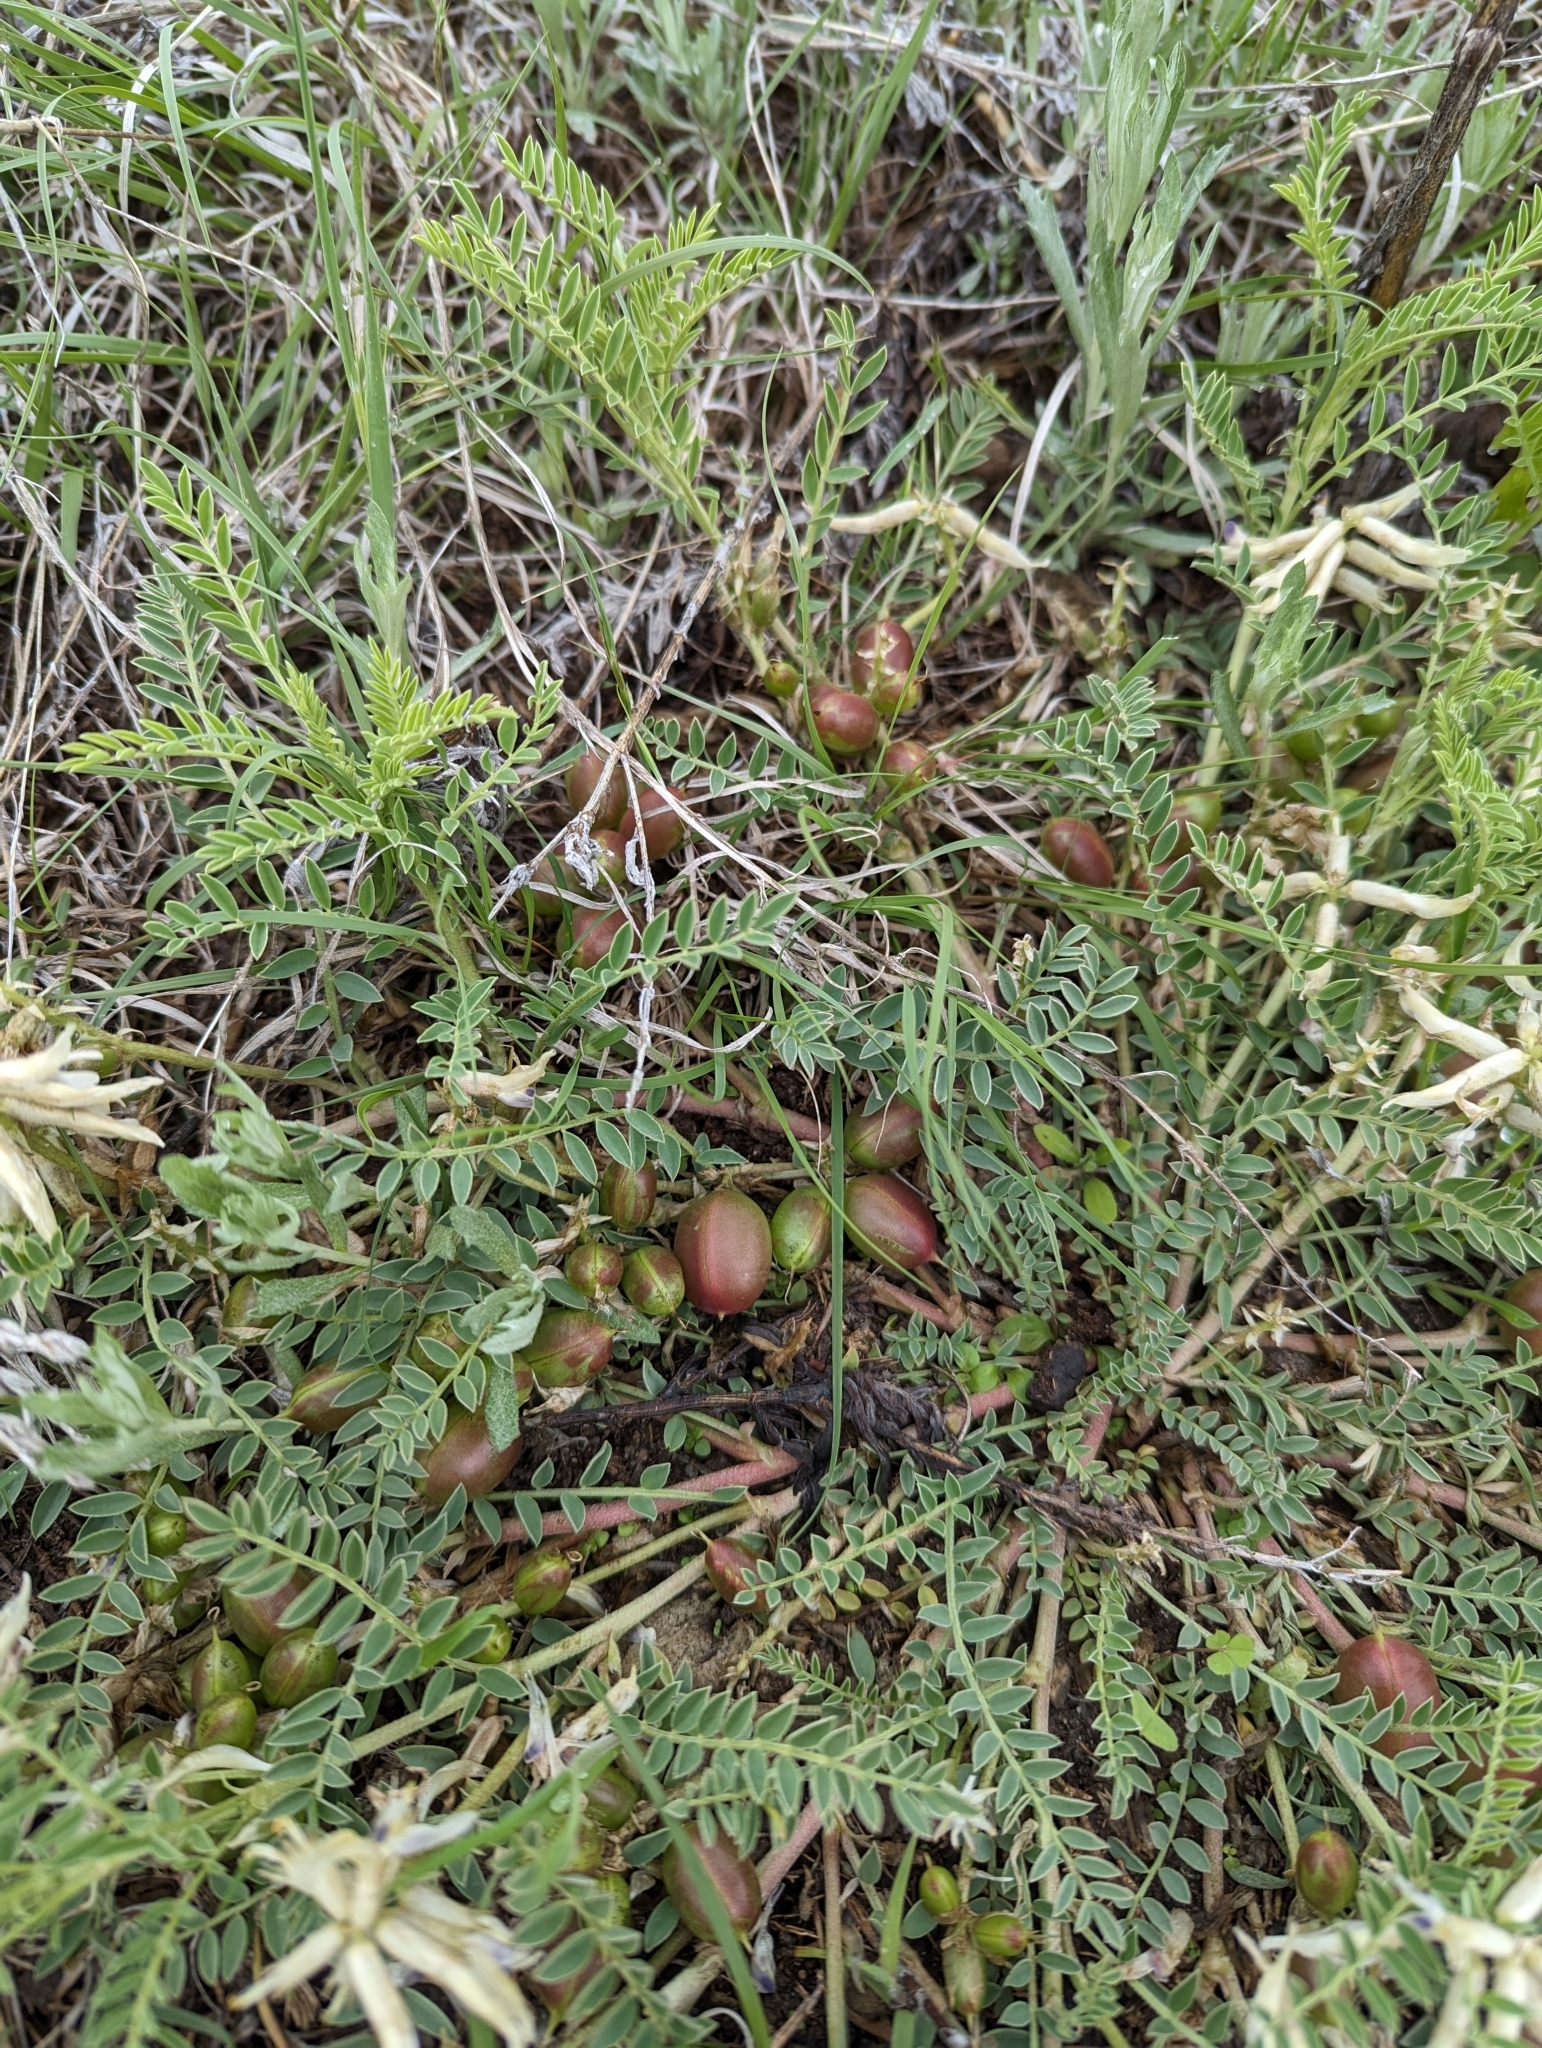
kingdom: Plantae
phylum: Tracheophyta
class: Magnoliopsida
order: Fabales
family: Fabaceae
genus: Astragalus
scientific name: Astragalus crassicarpus
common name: Ground-plum milk-vetch
